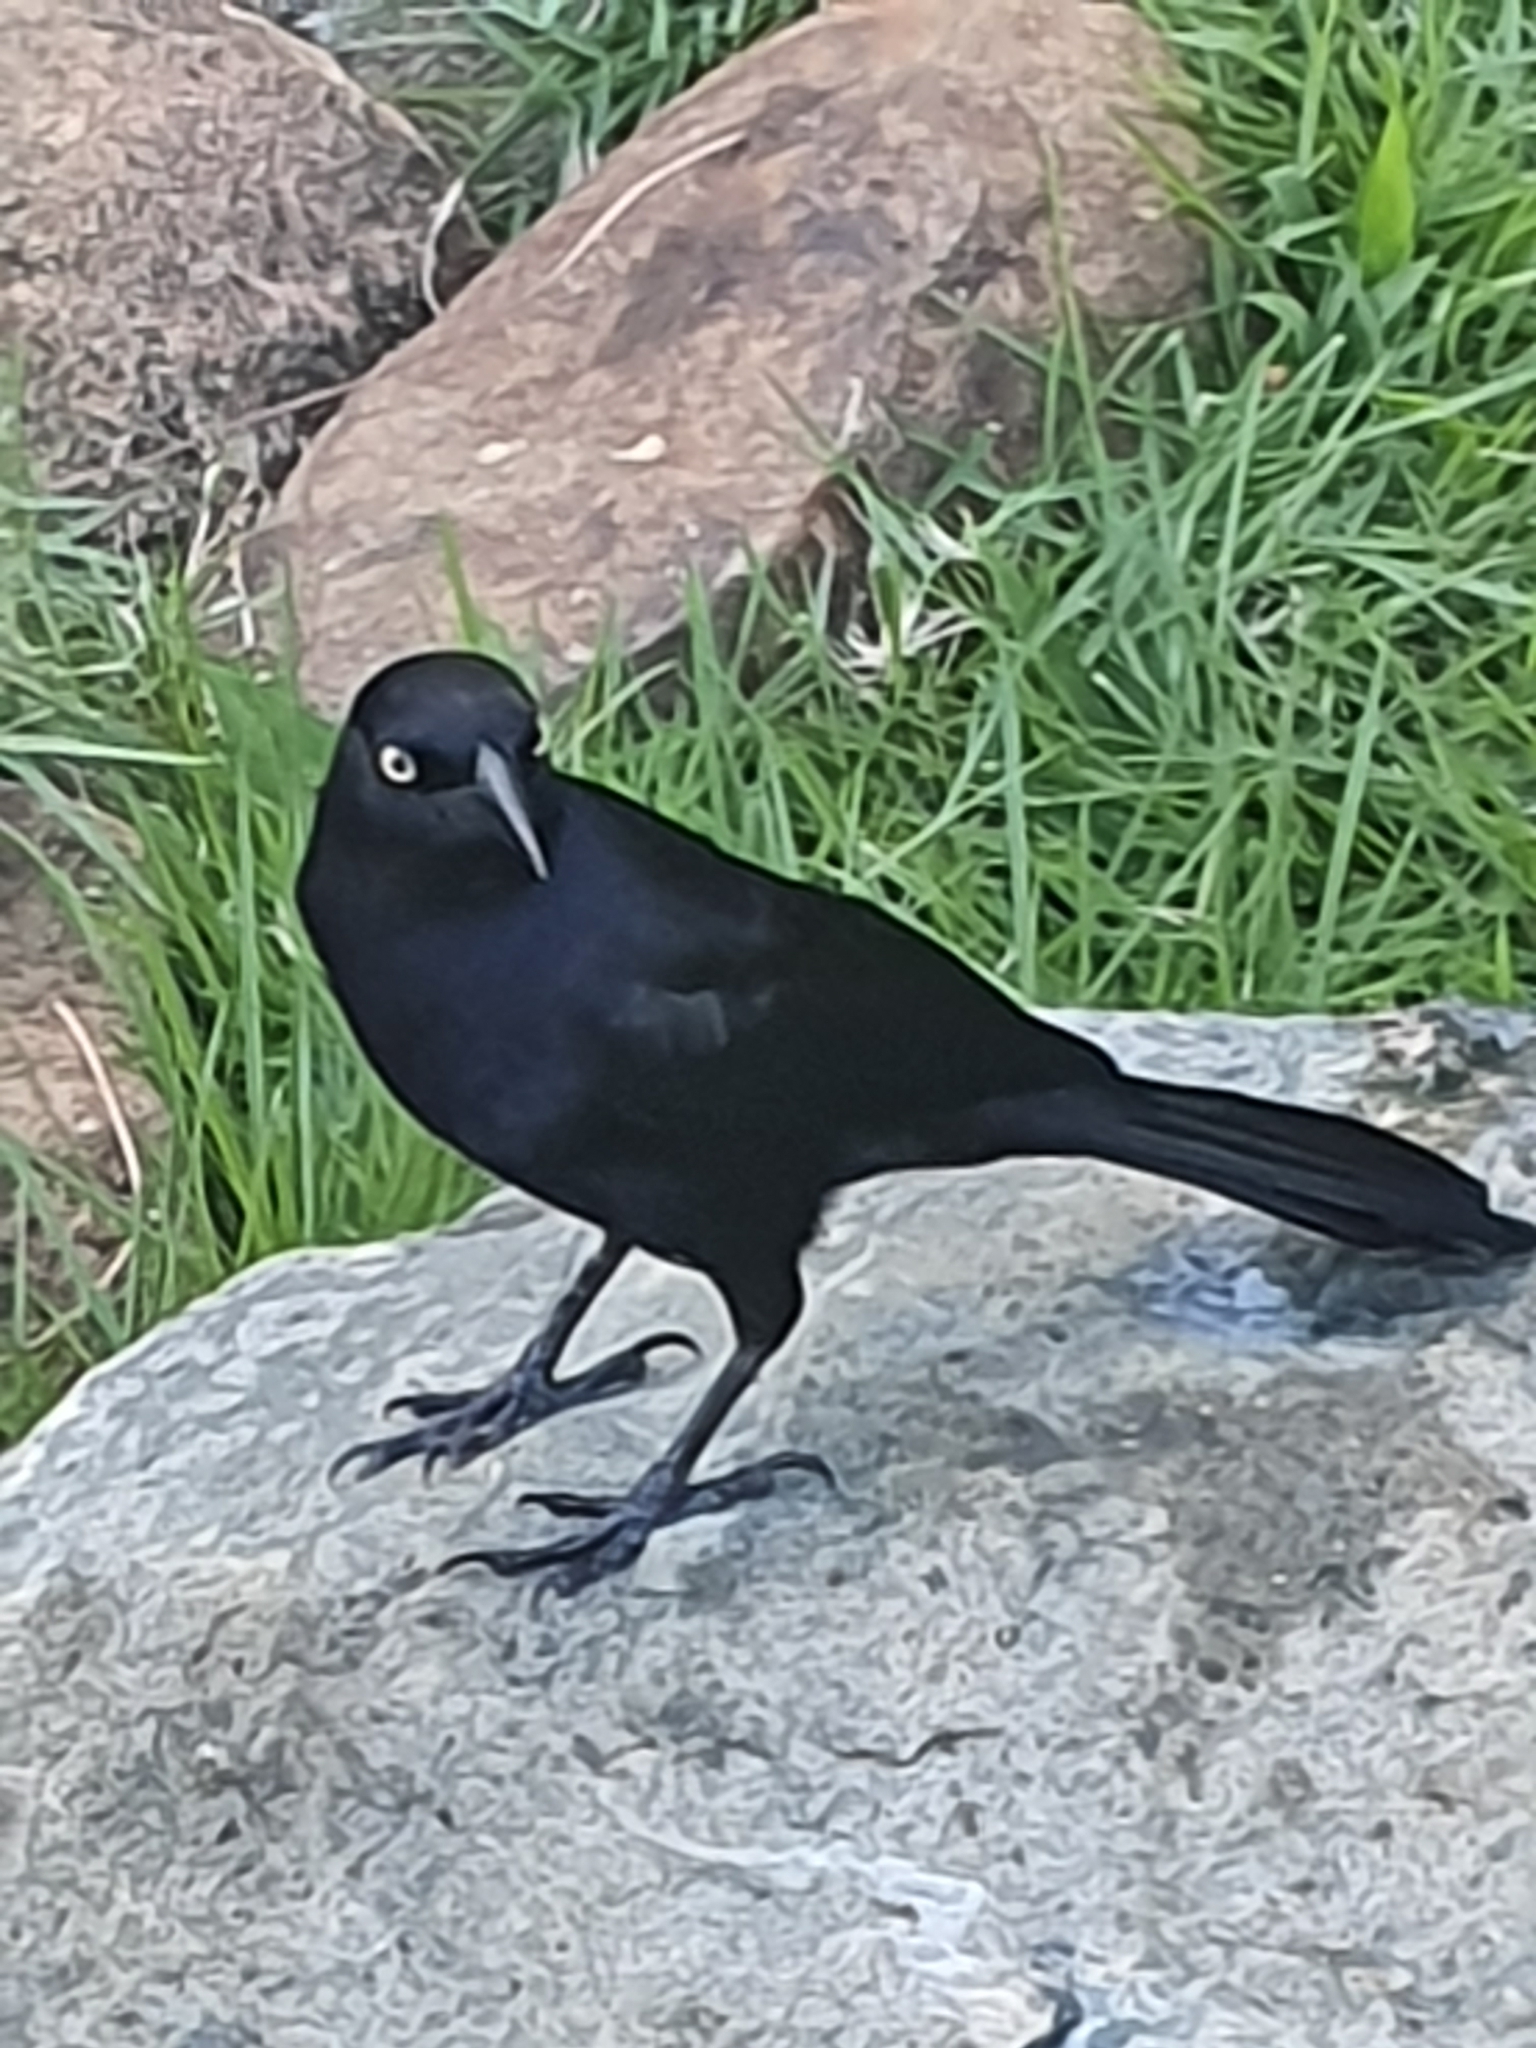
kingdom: Animalia
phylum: Chordata
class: Aves
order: Passeriformes
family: Icteridae
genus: Quiscalus
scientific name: Quiscalus niger
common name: Greater antillean grackle
